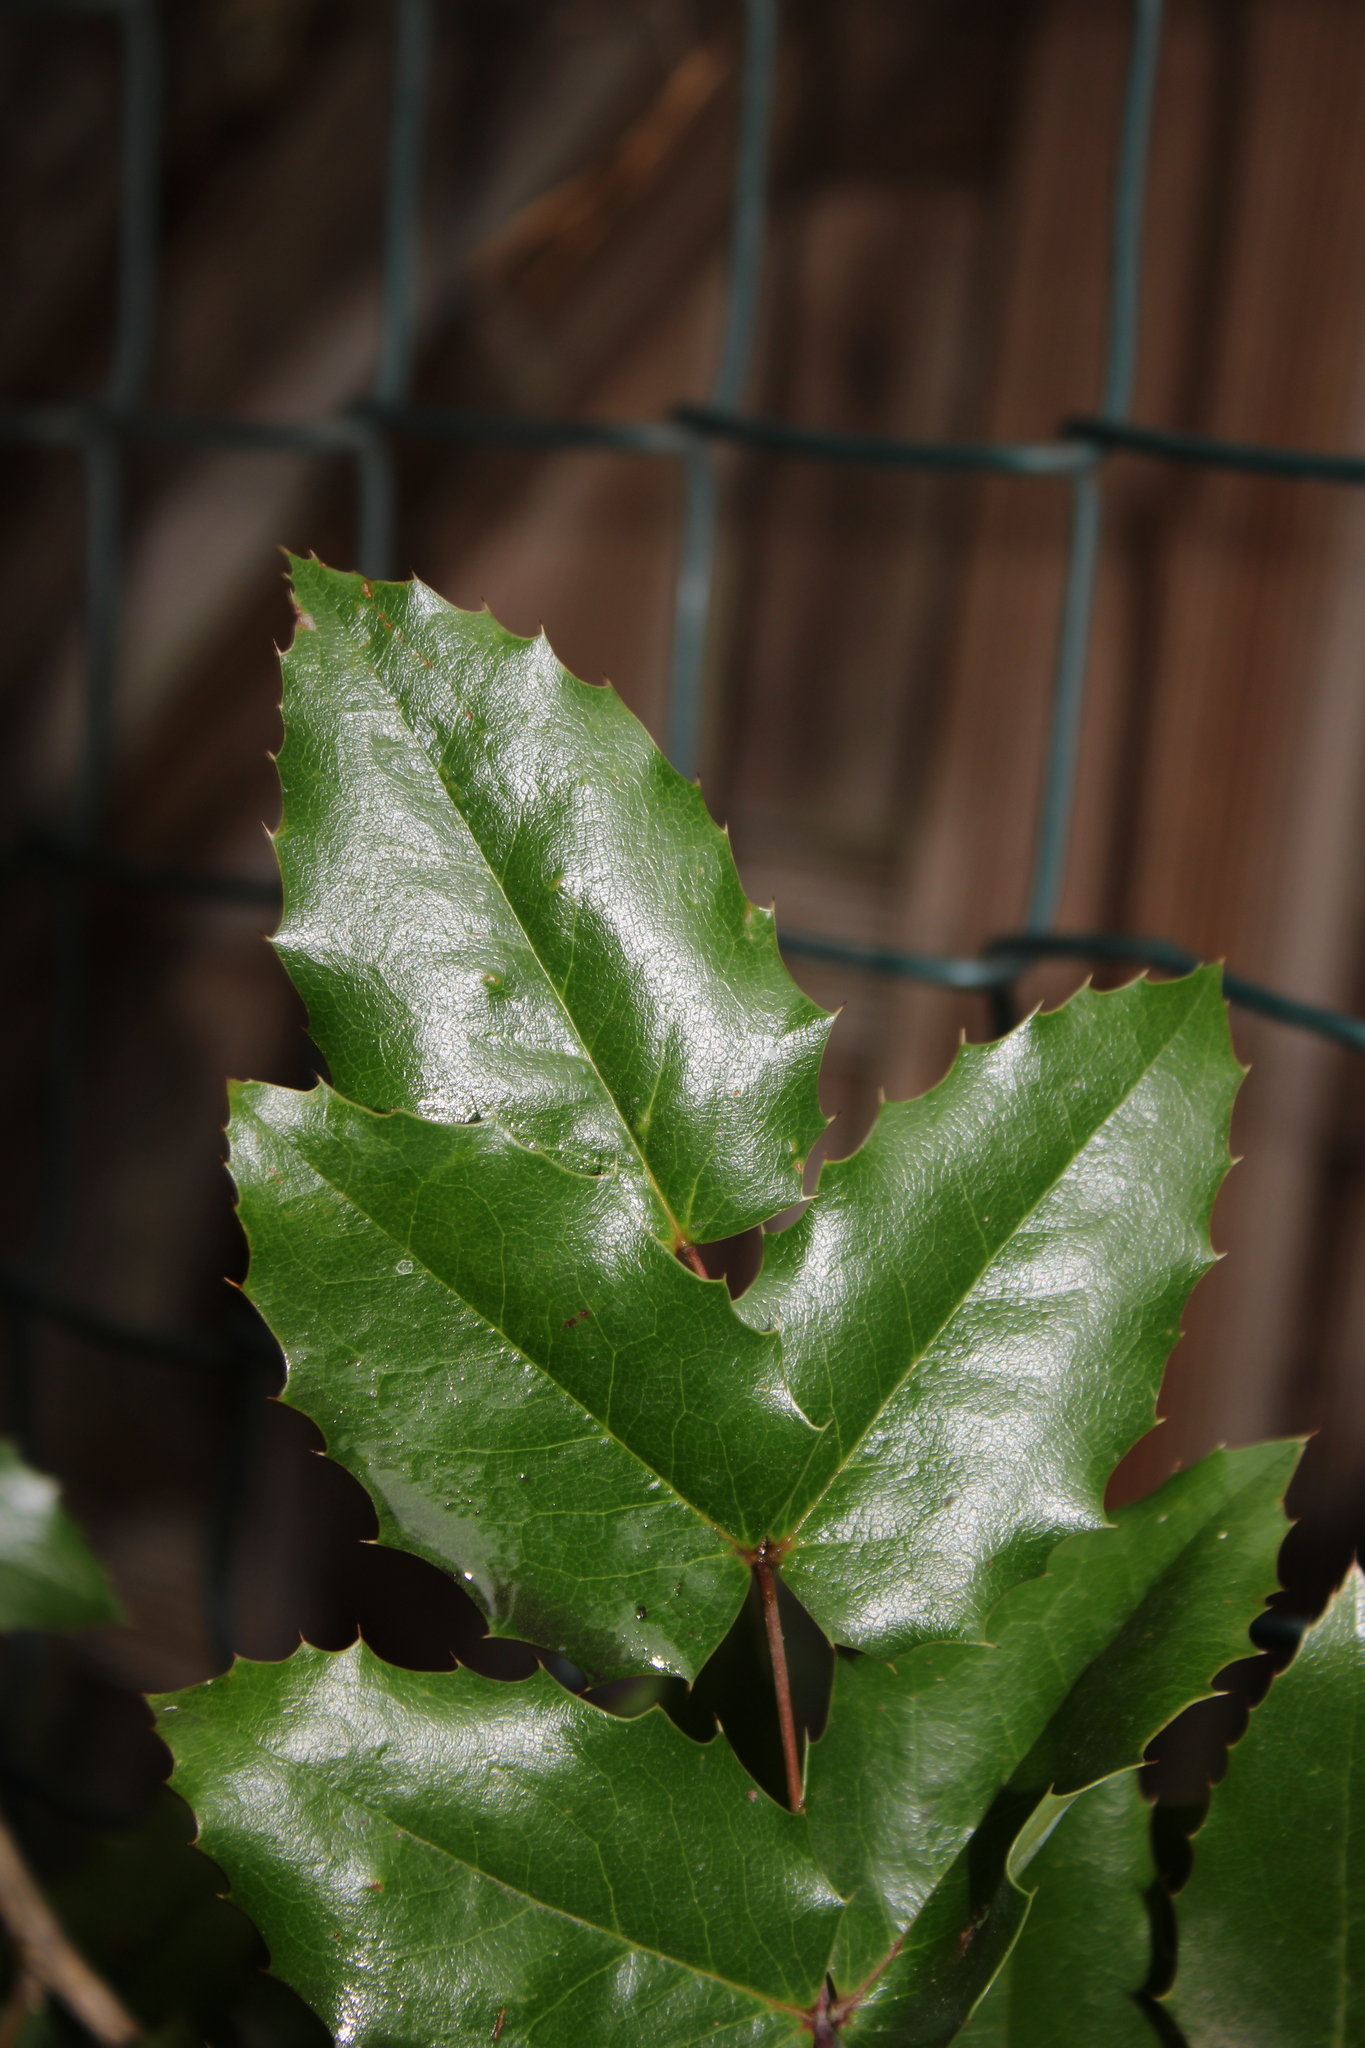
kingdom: Plantae
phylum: Tracheophyta
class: Magnoliopsida
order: Ranunculales
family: Berberidaceae
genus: Mahonia
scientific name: Mahonia aquifolium
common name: Oregon-grape
